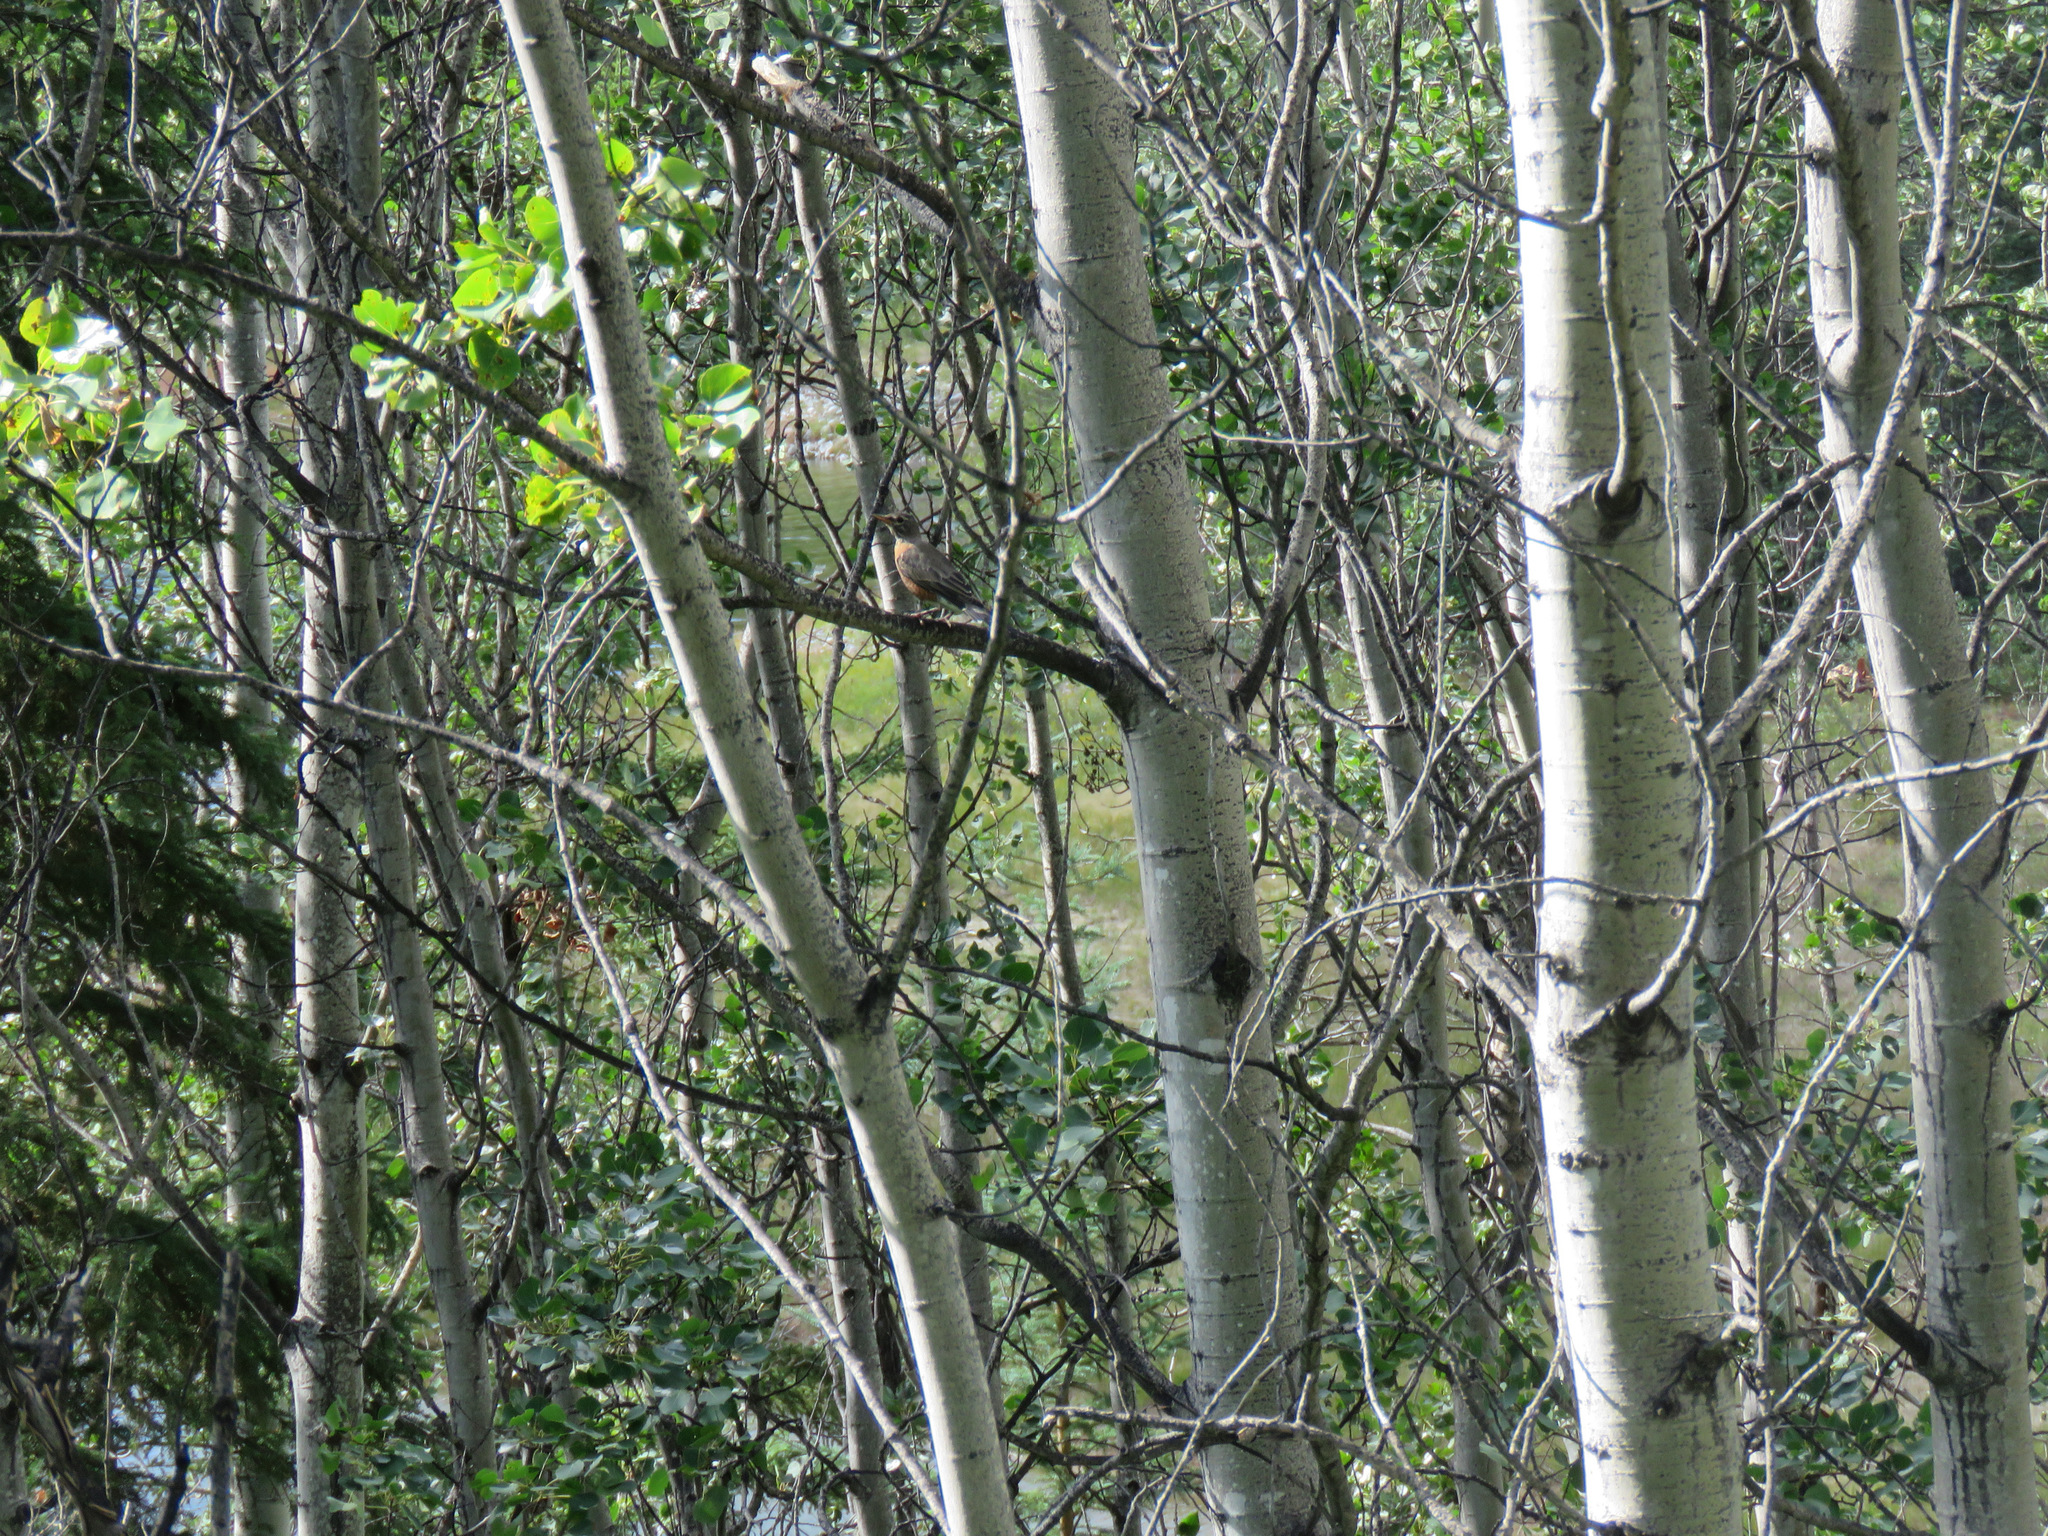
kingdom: Animalia
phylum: Chordata
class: Aves
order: Passeriformes
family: Turdidae
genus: Turdus
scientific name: Turdus migratorius
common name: American robin
